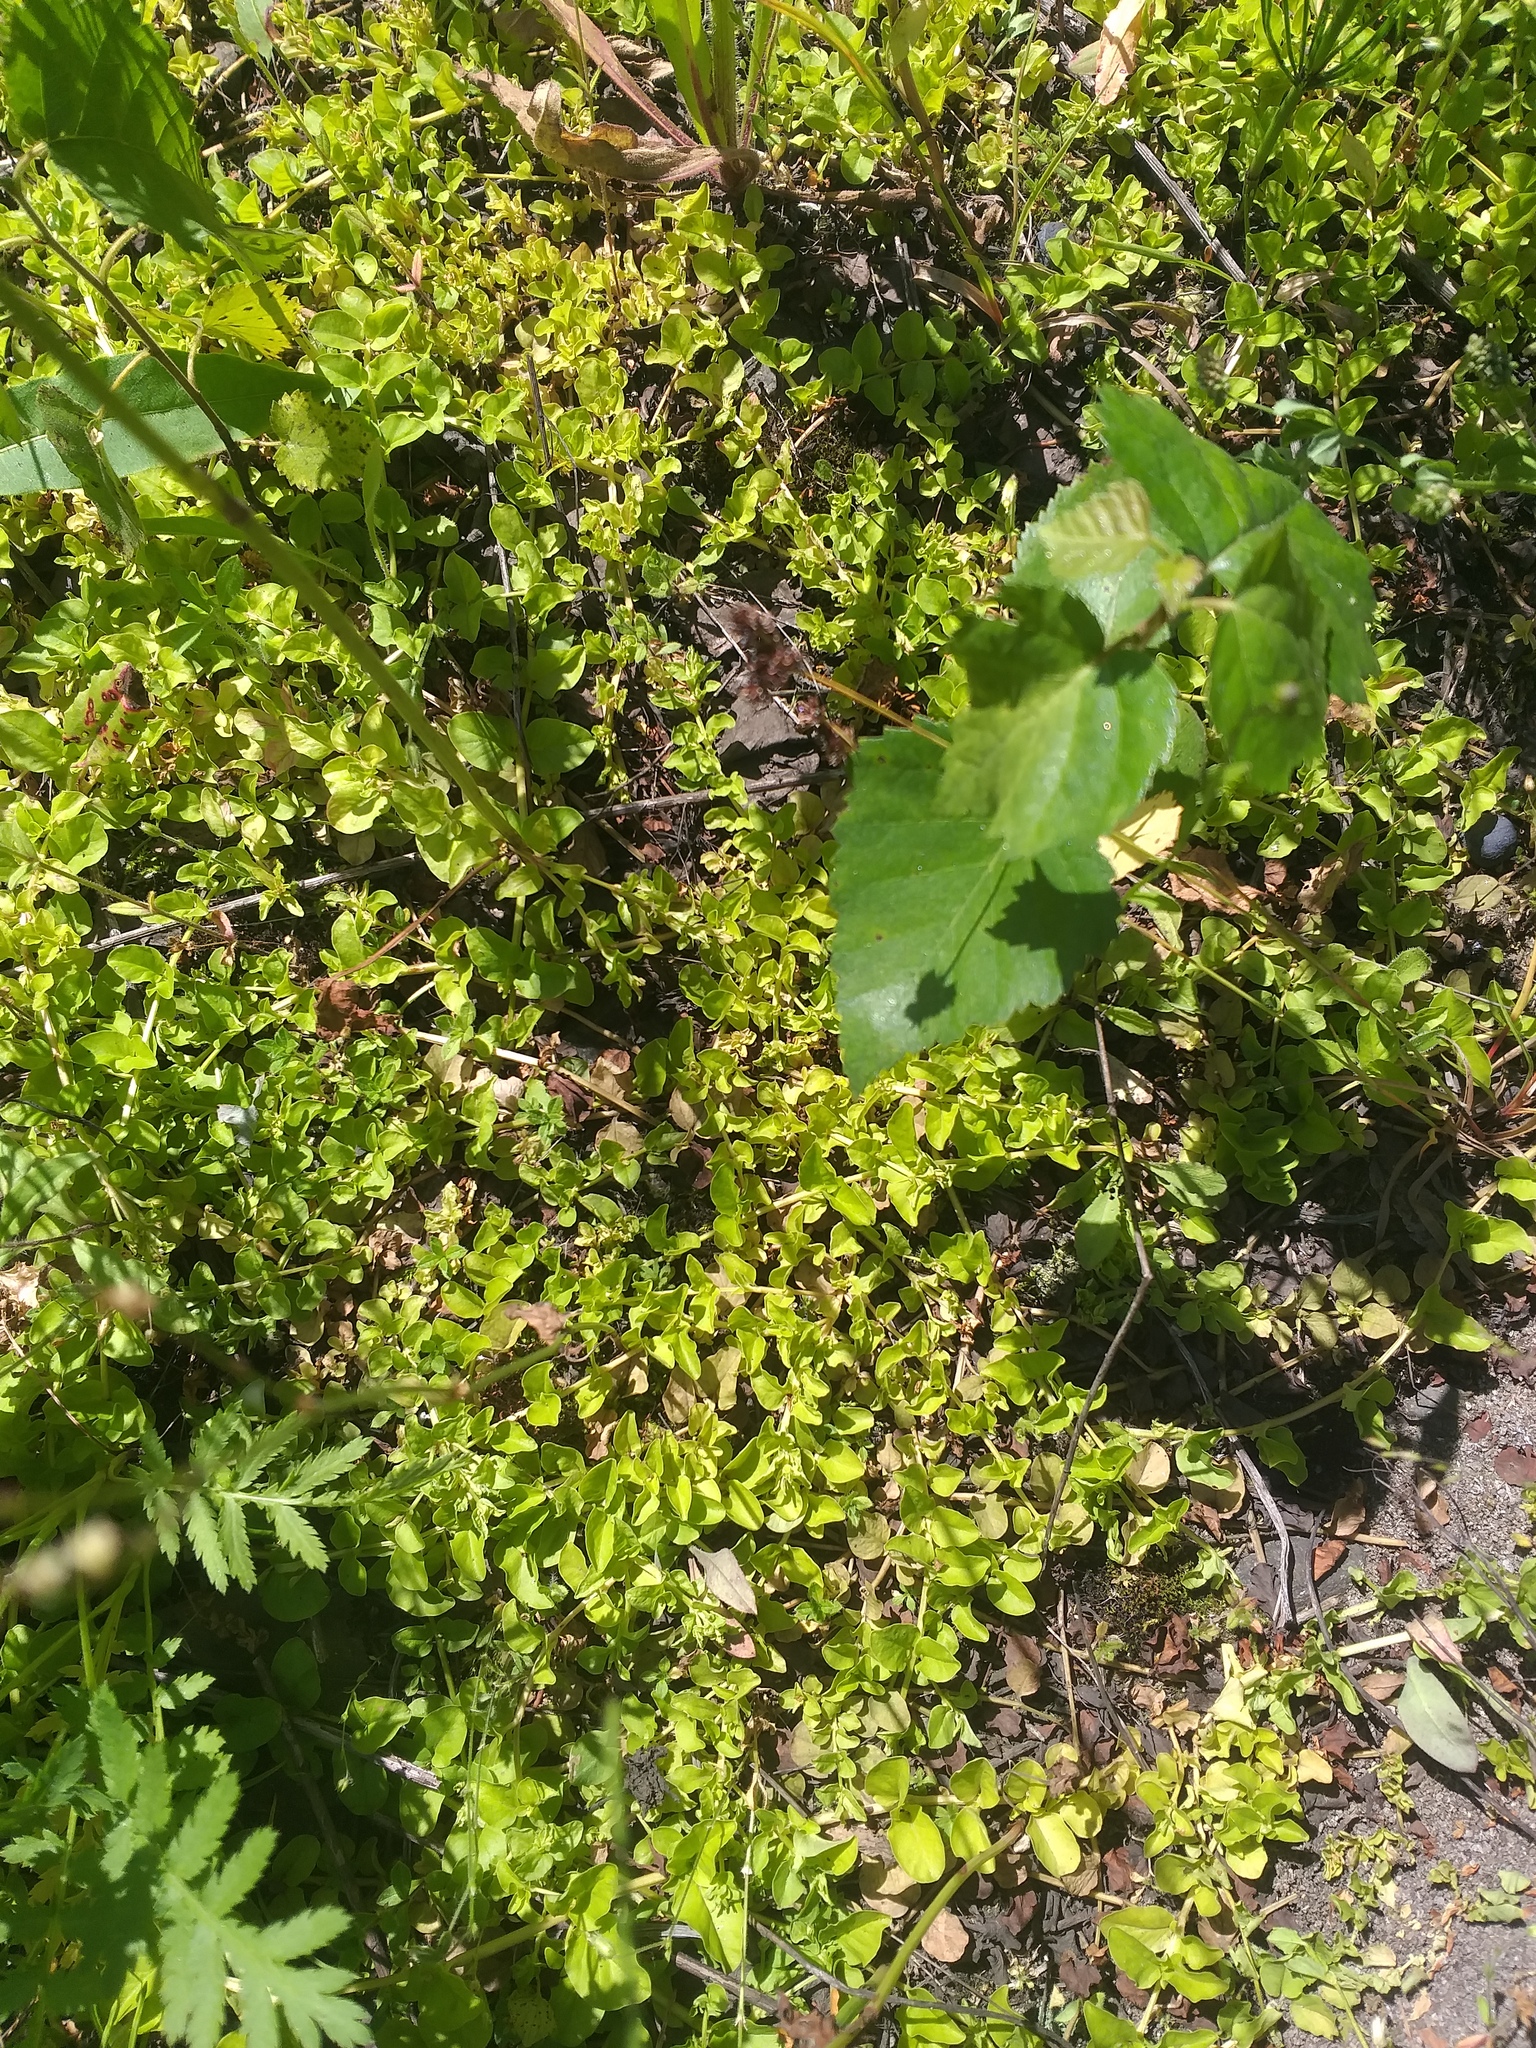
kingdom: Plantae
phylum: Tracheophyta
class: Magnoliopsida
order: Ericales
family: Primulaceae
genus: Lysimachia
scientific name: Lysimachia nummularia
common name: Moneywort
